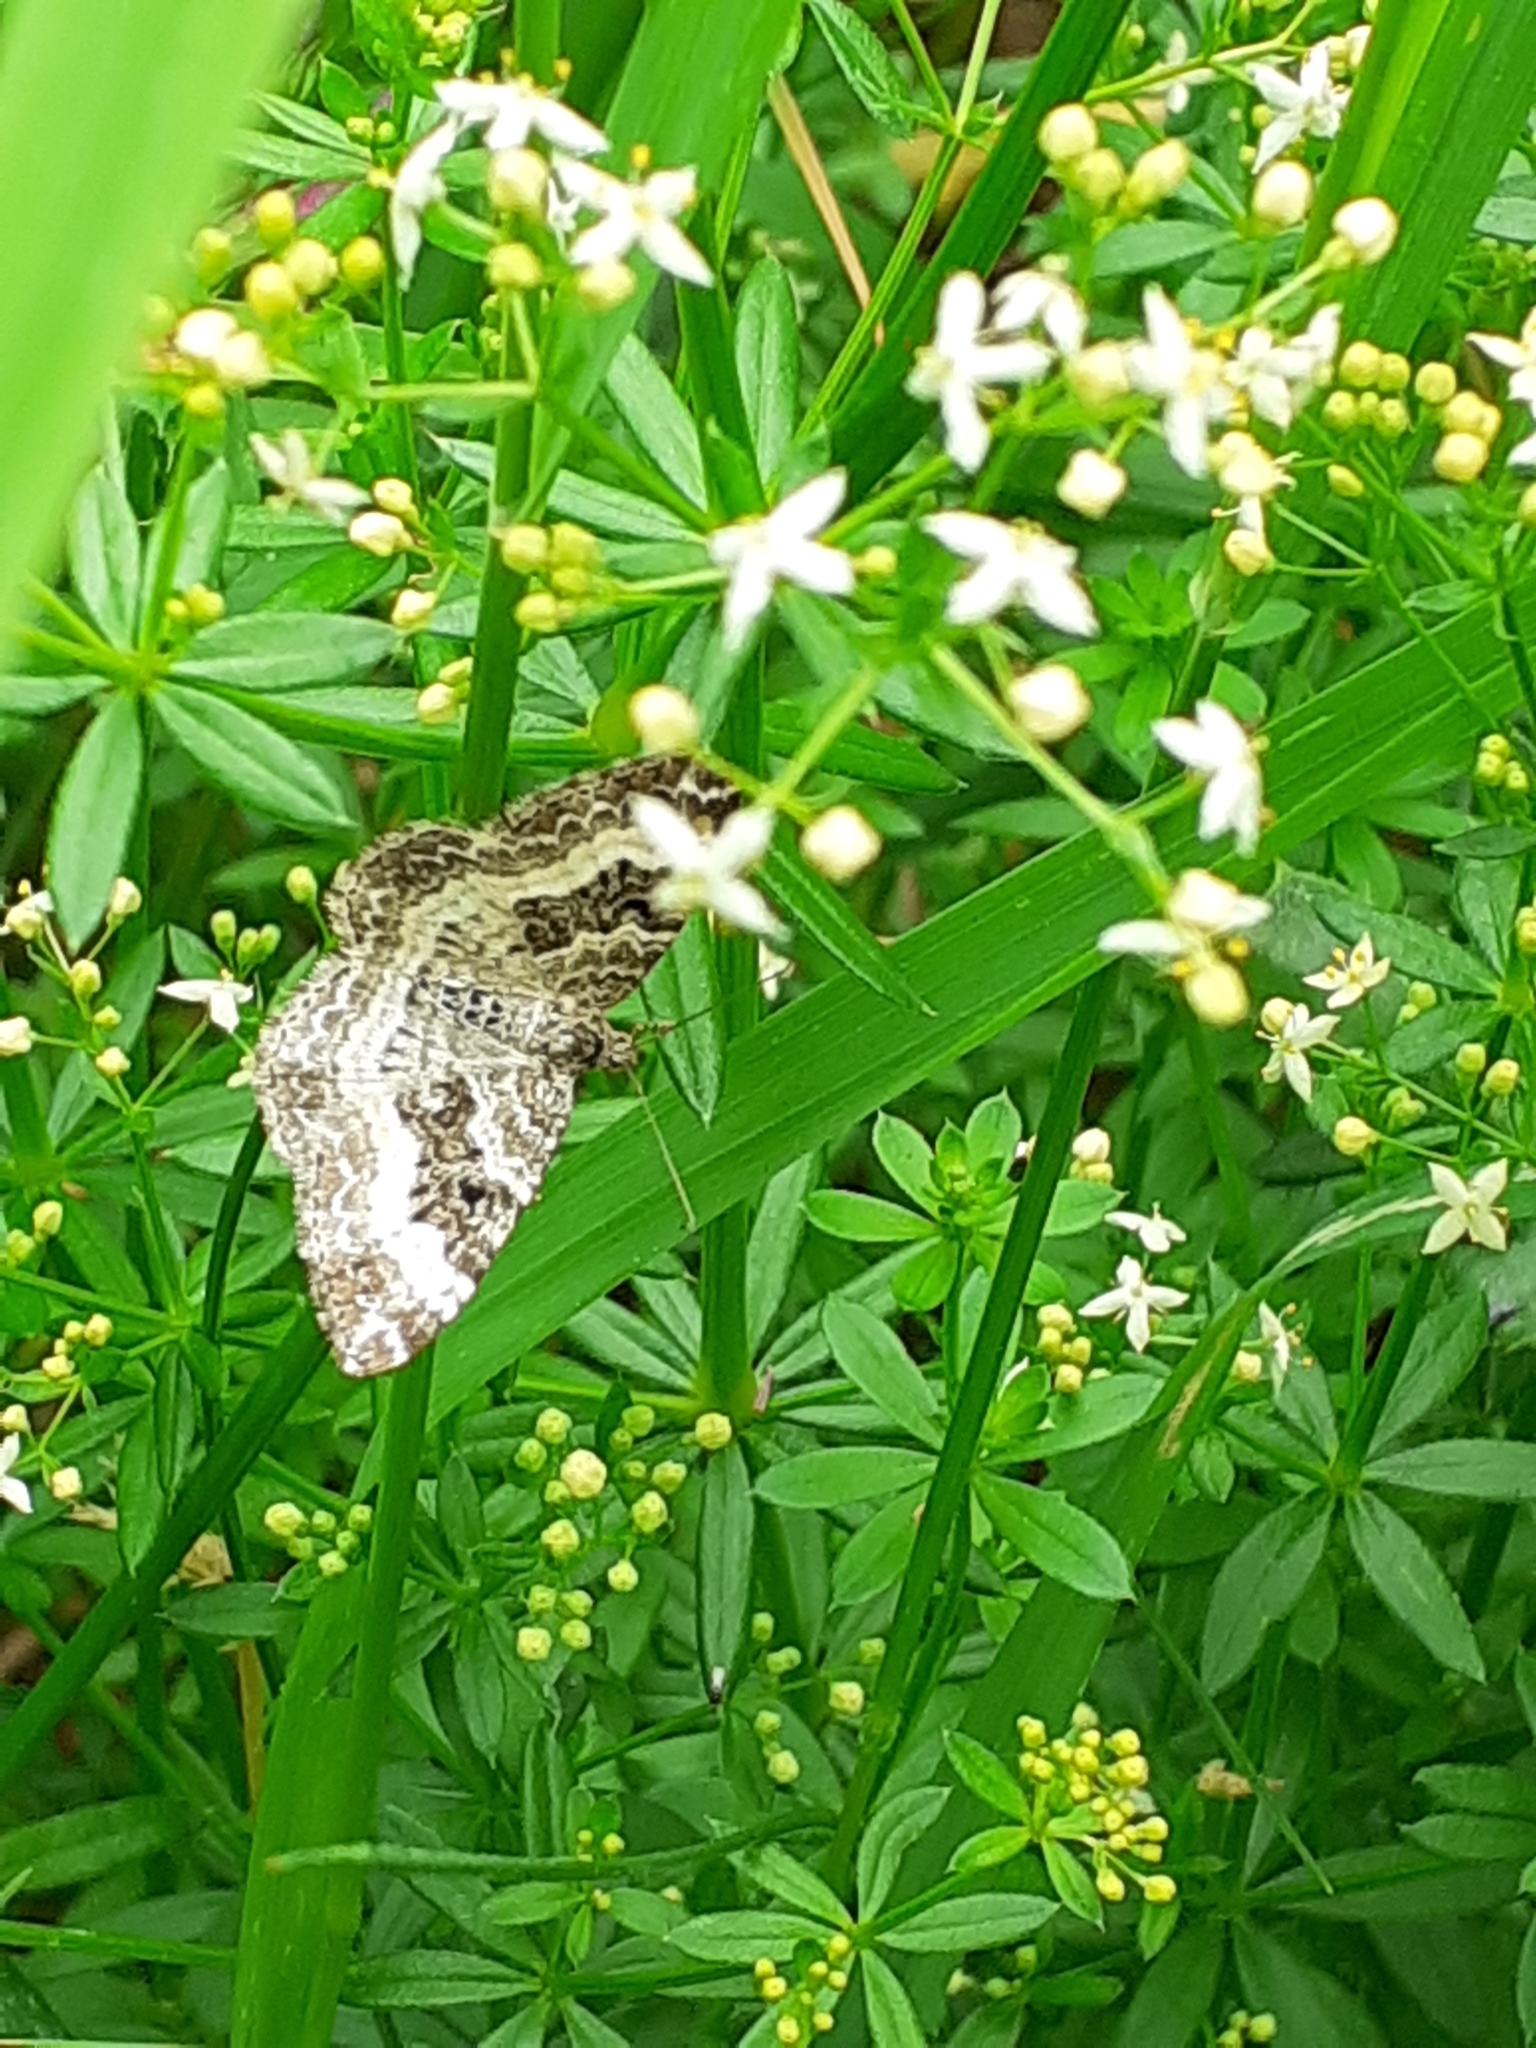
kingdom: Animalia
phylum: Arthropoda
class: Insecta
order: Lepidoptera
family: Geometridae
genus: Epirrhoe
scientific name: Epirrhoe alternata
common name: Common carpet
